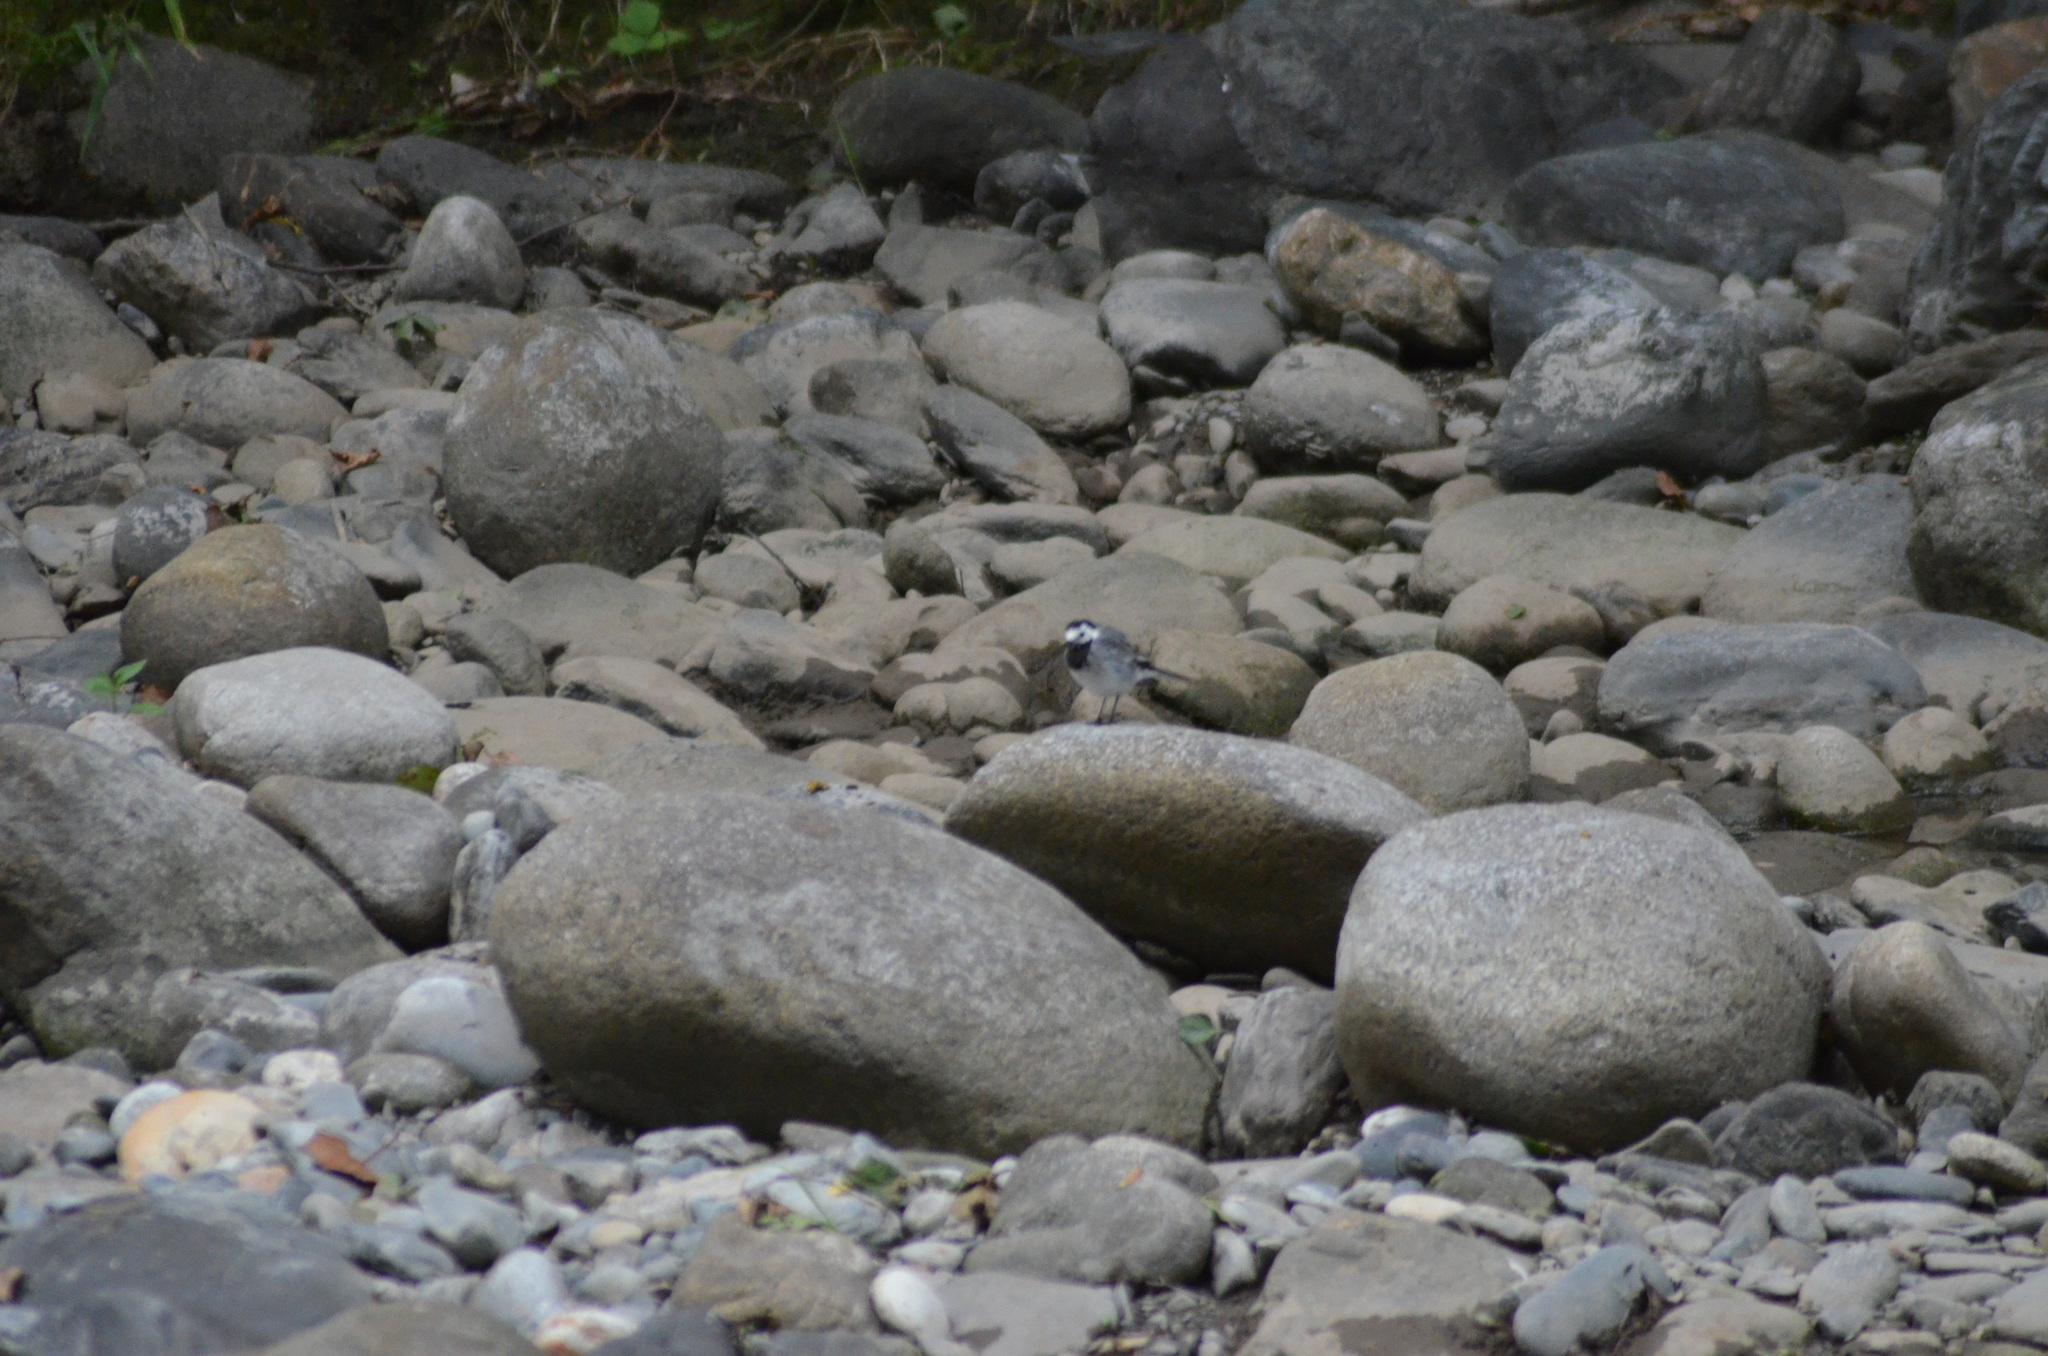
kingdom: Animalia
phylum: Chordata
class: Aves
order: Passeriformes
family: Motacillidae
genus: Motacilla
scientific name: Motacilla alba
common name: White wagtail
